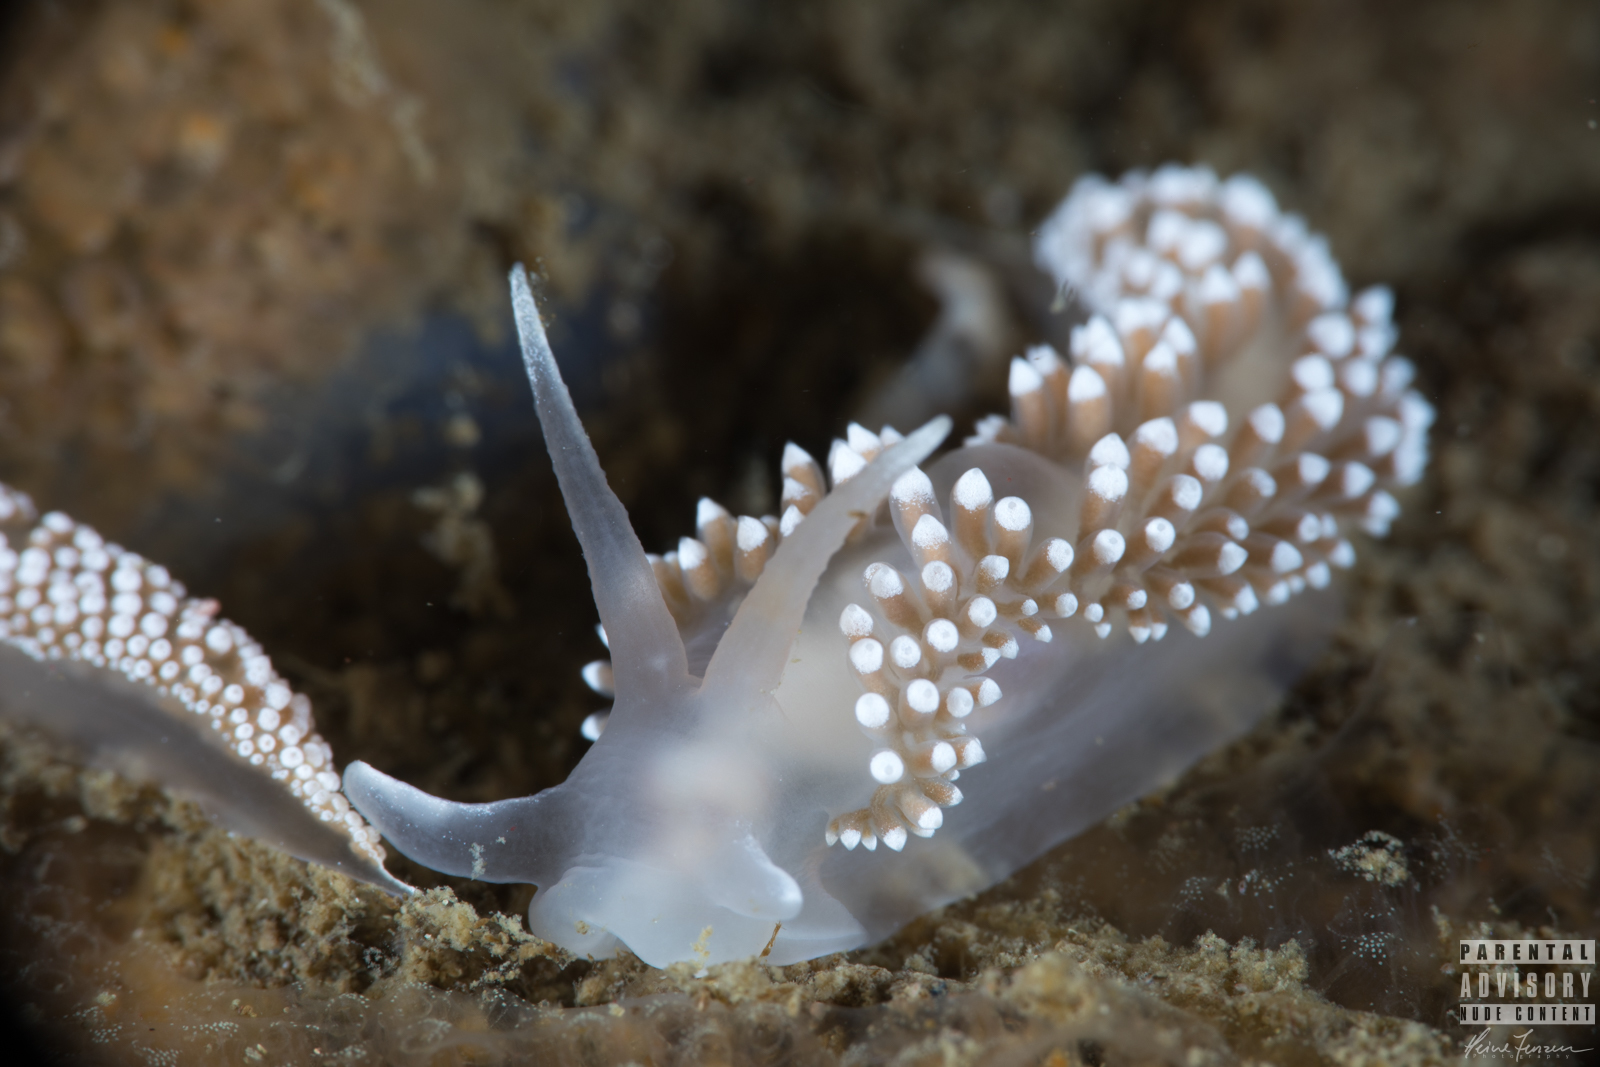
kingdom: Animalia
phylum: Mollusca
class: Gastropoda
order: Nudibranchia
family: Coryphellidae
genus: Coryphella
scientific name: Coryphella verrucosa
